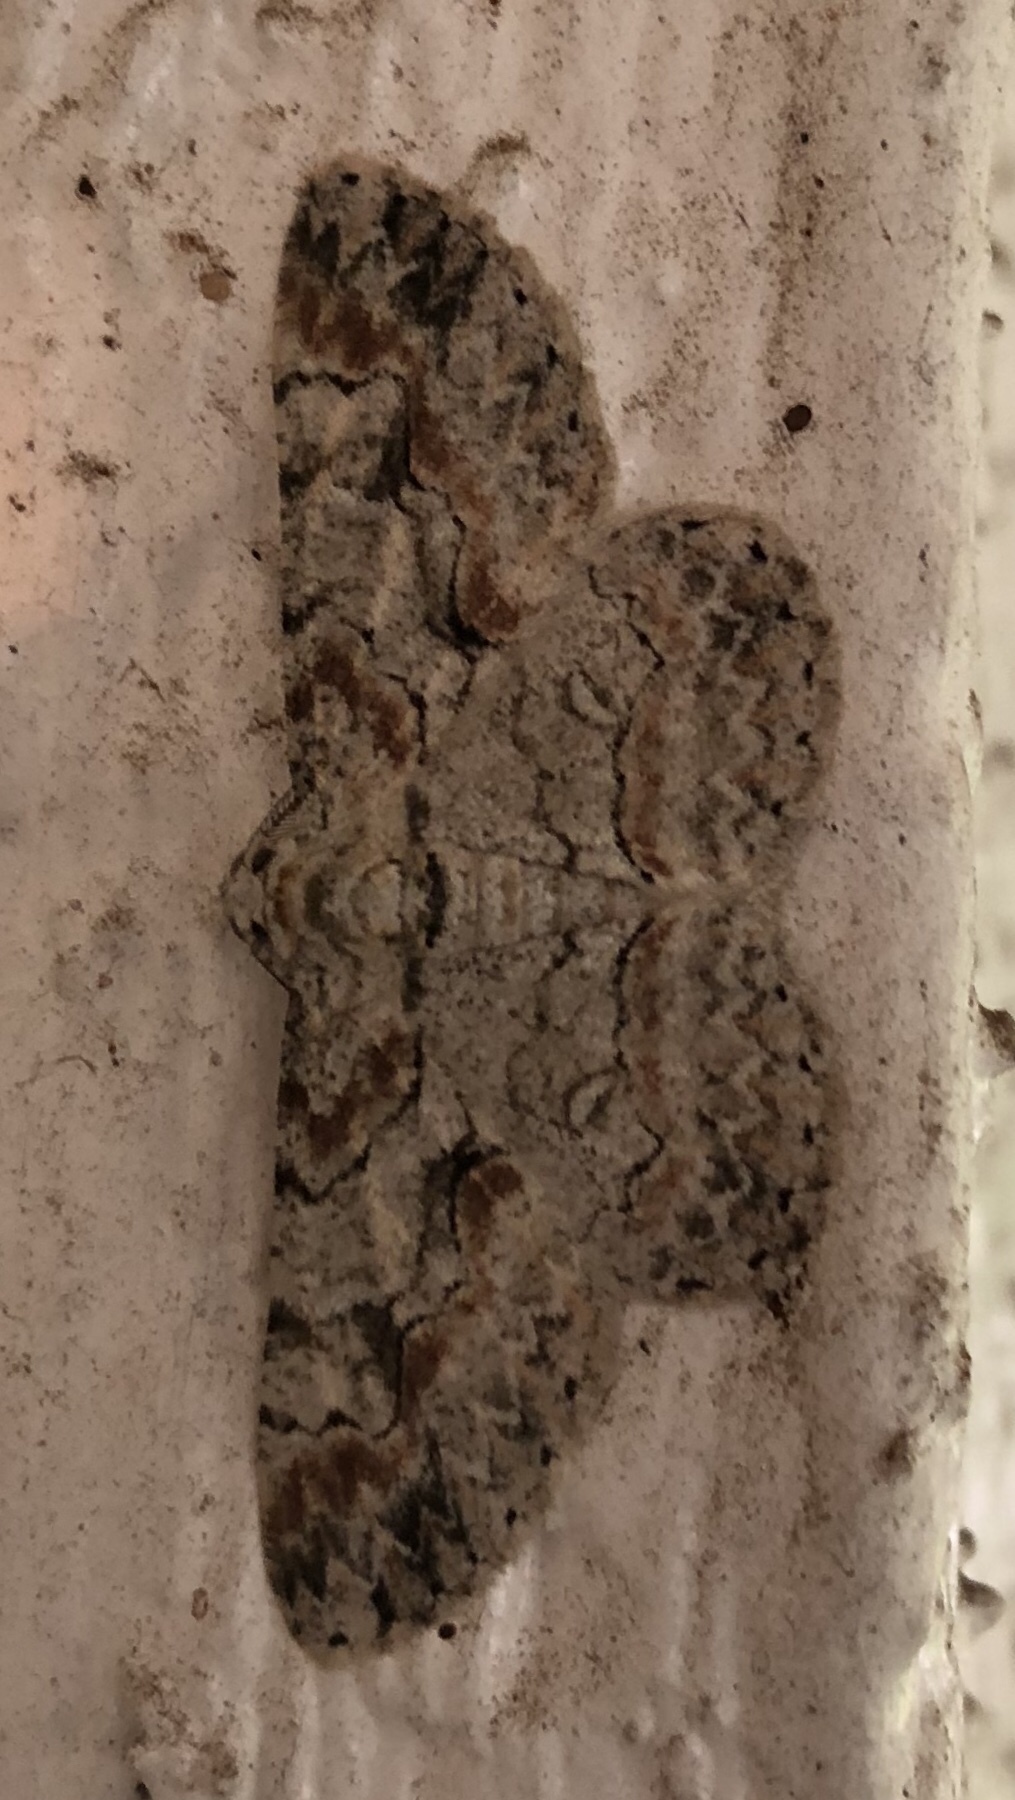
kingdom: Animalia
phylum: Arthropoda
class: Insecta
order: Lepidoptera
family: Geometridae
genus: Iridopsis
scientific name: Iridopsis defectaria
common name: Brown-shaded gray
